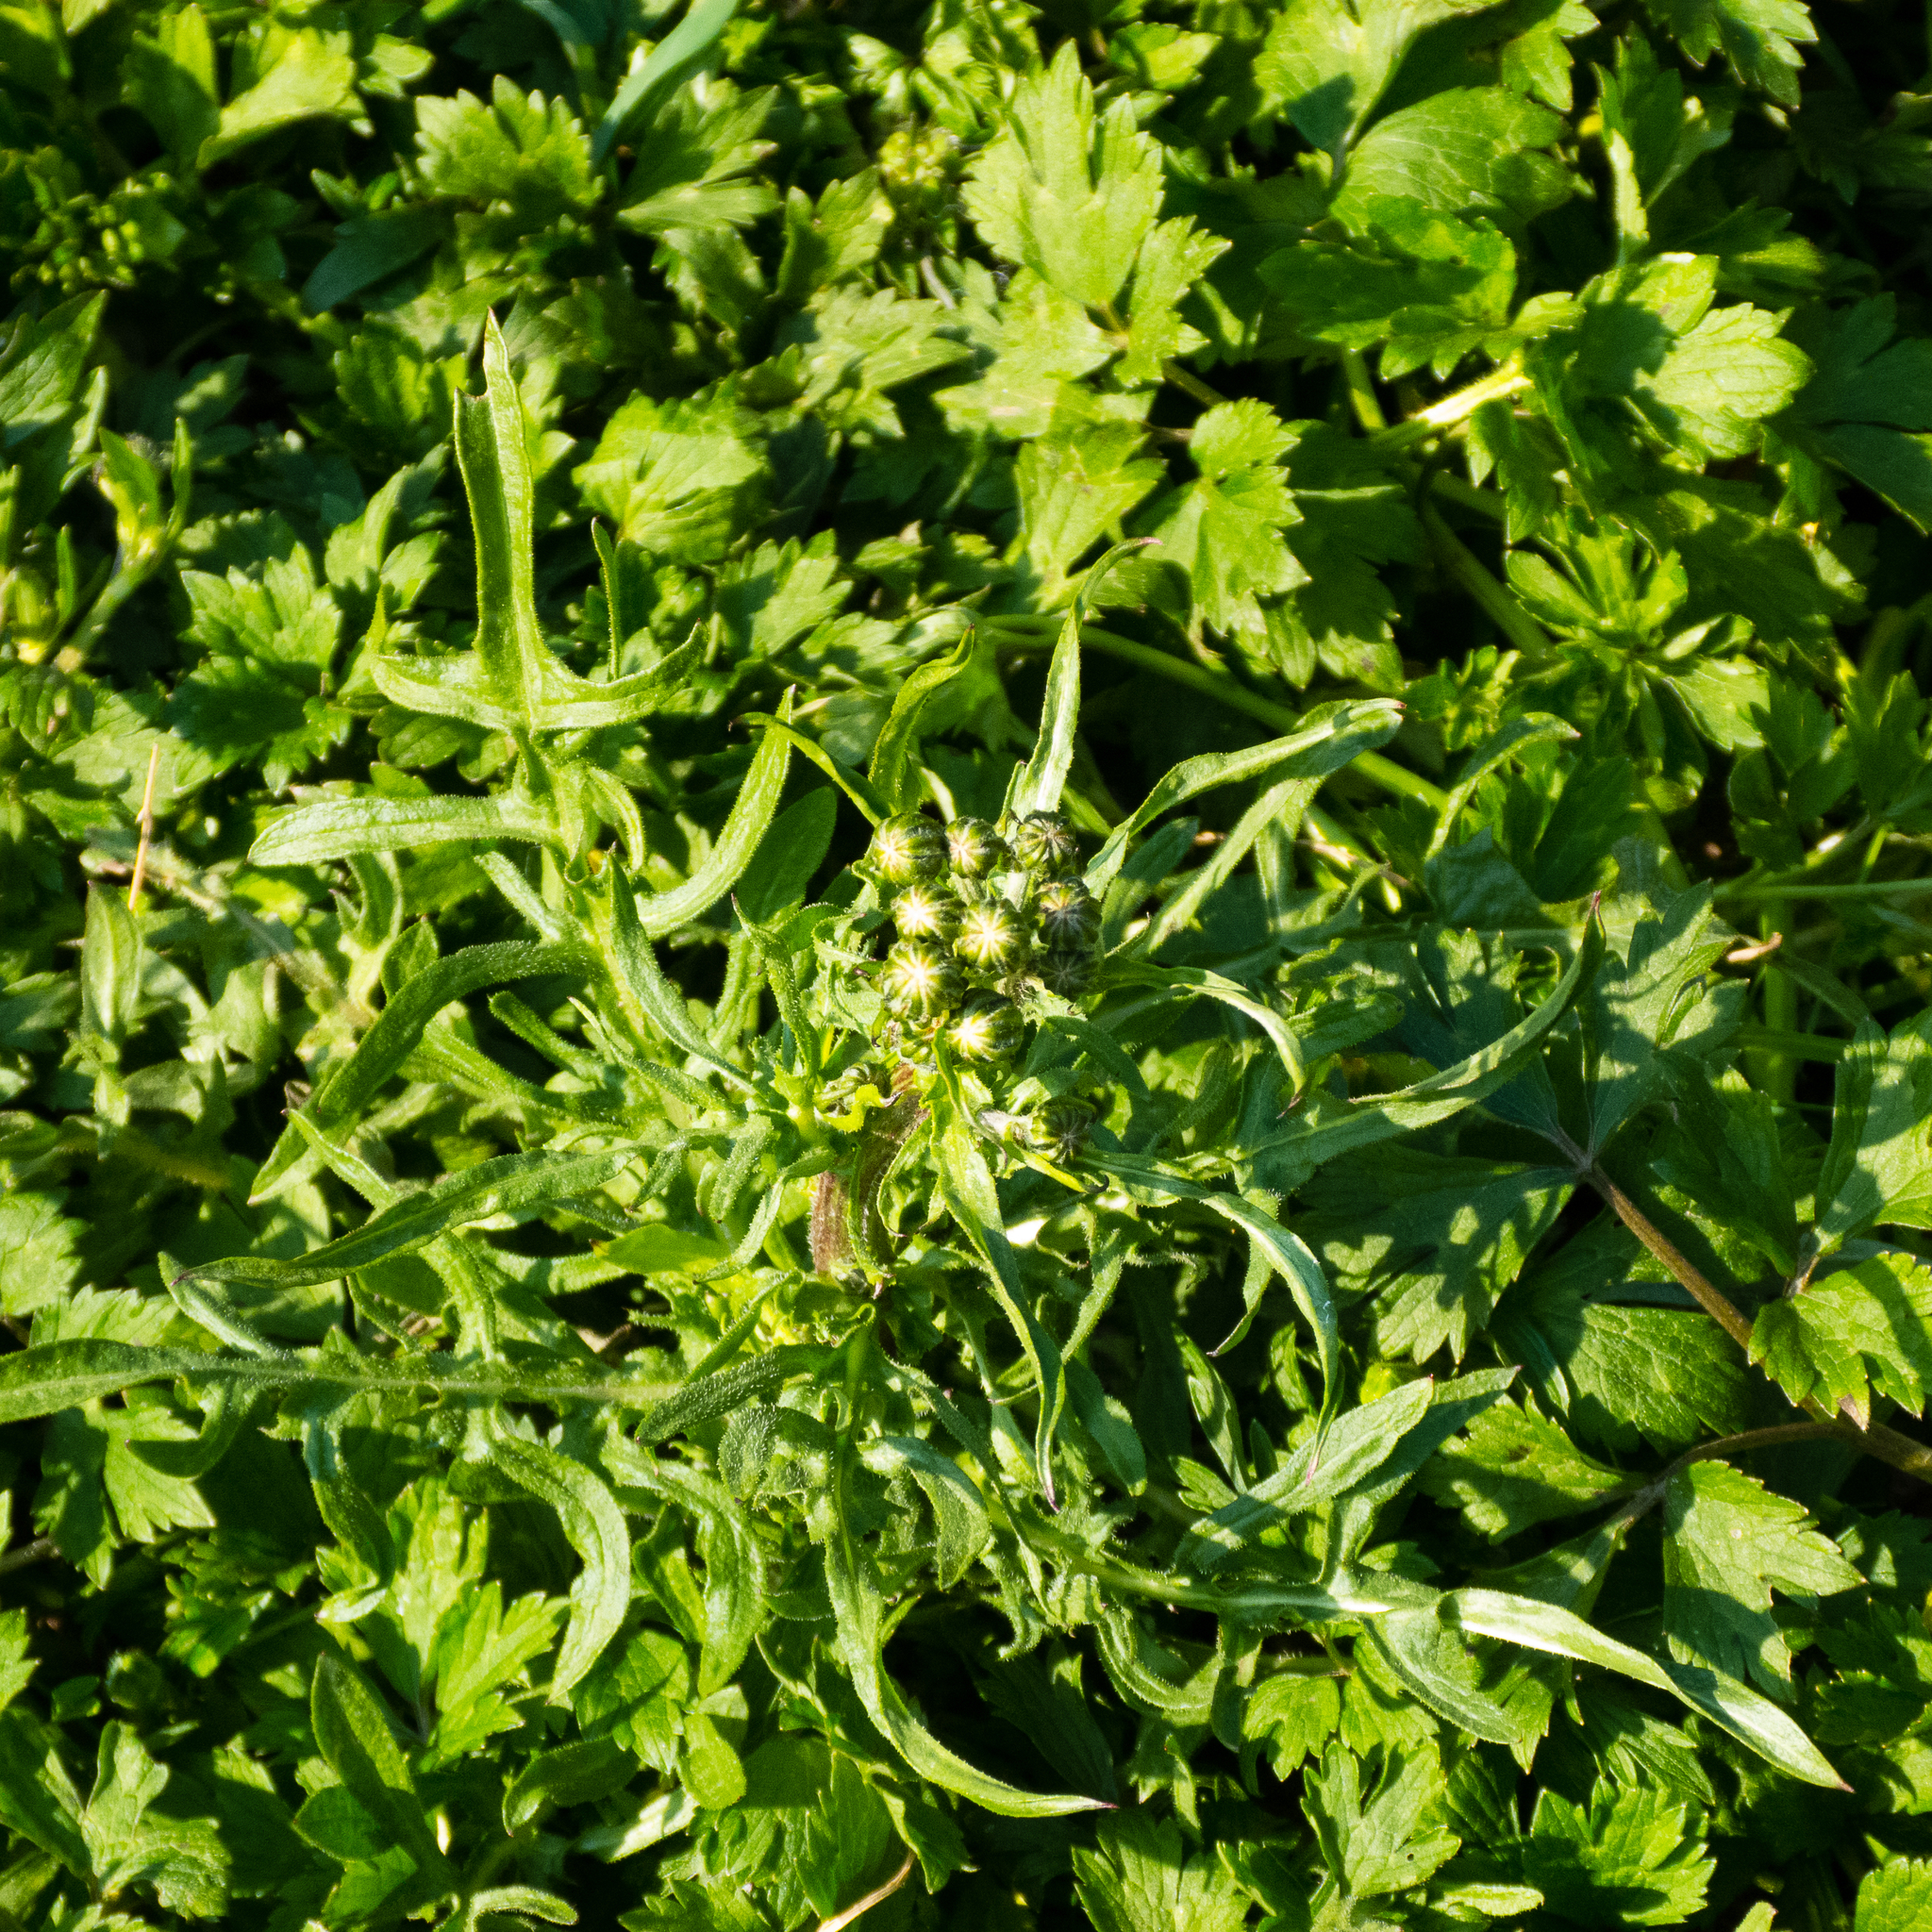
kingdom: Plantae
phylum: Tracheophyta
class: Magnoliopsida
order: Asterales
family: Asteraceae
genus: Crepis
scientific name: Crepis biennis
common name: Rough hawk's-beard
